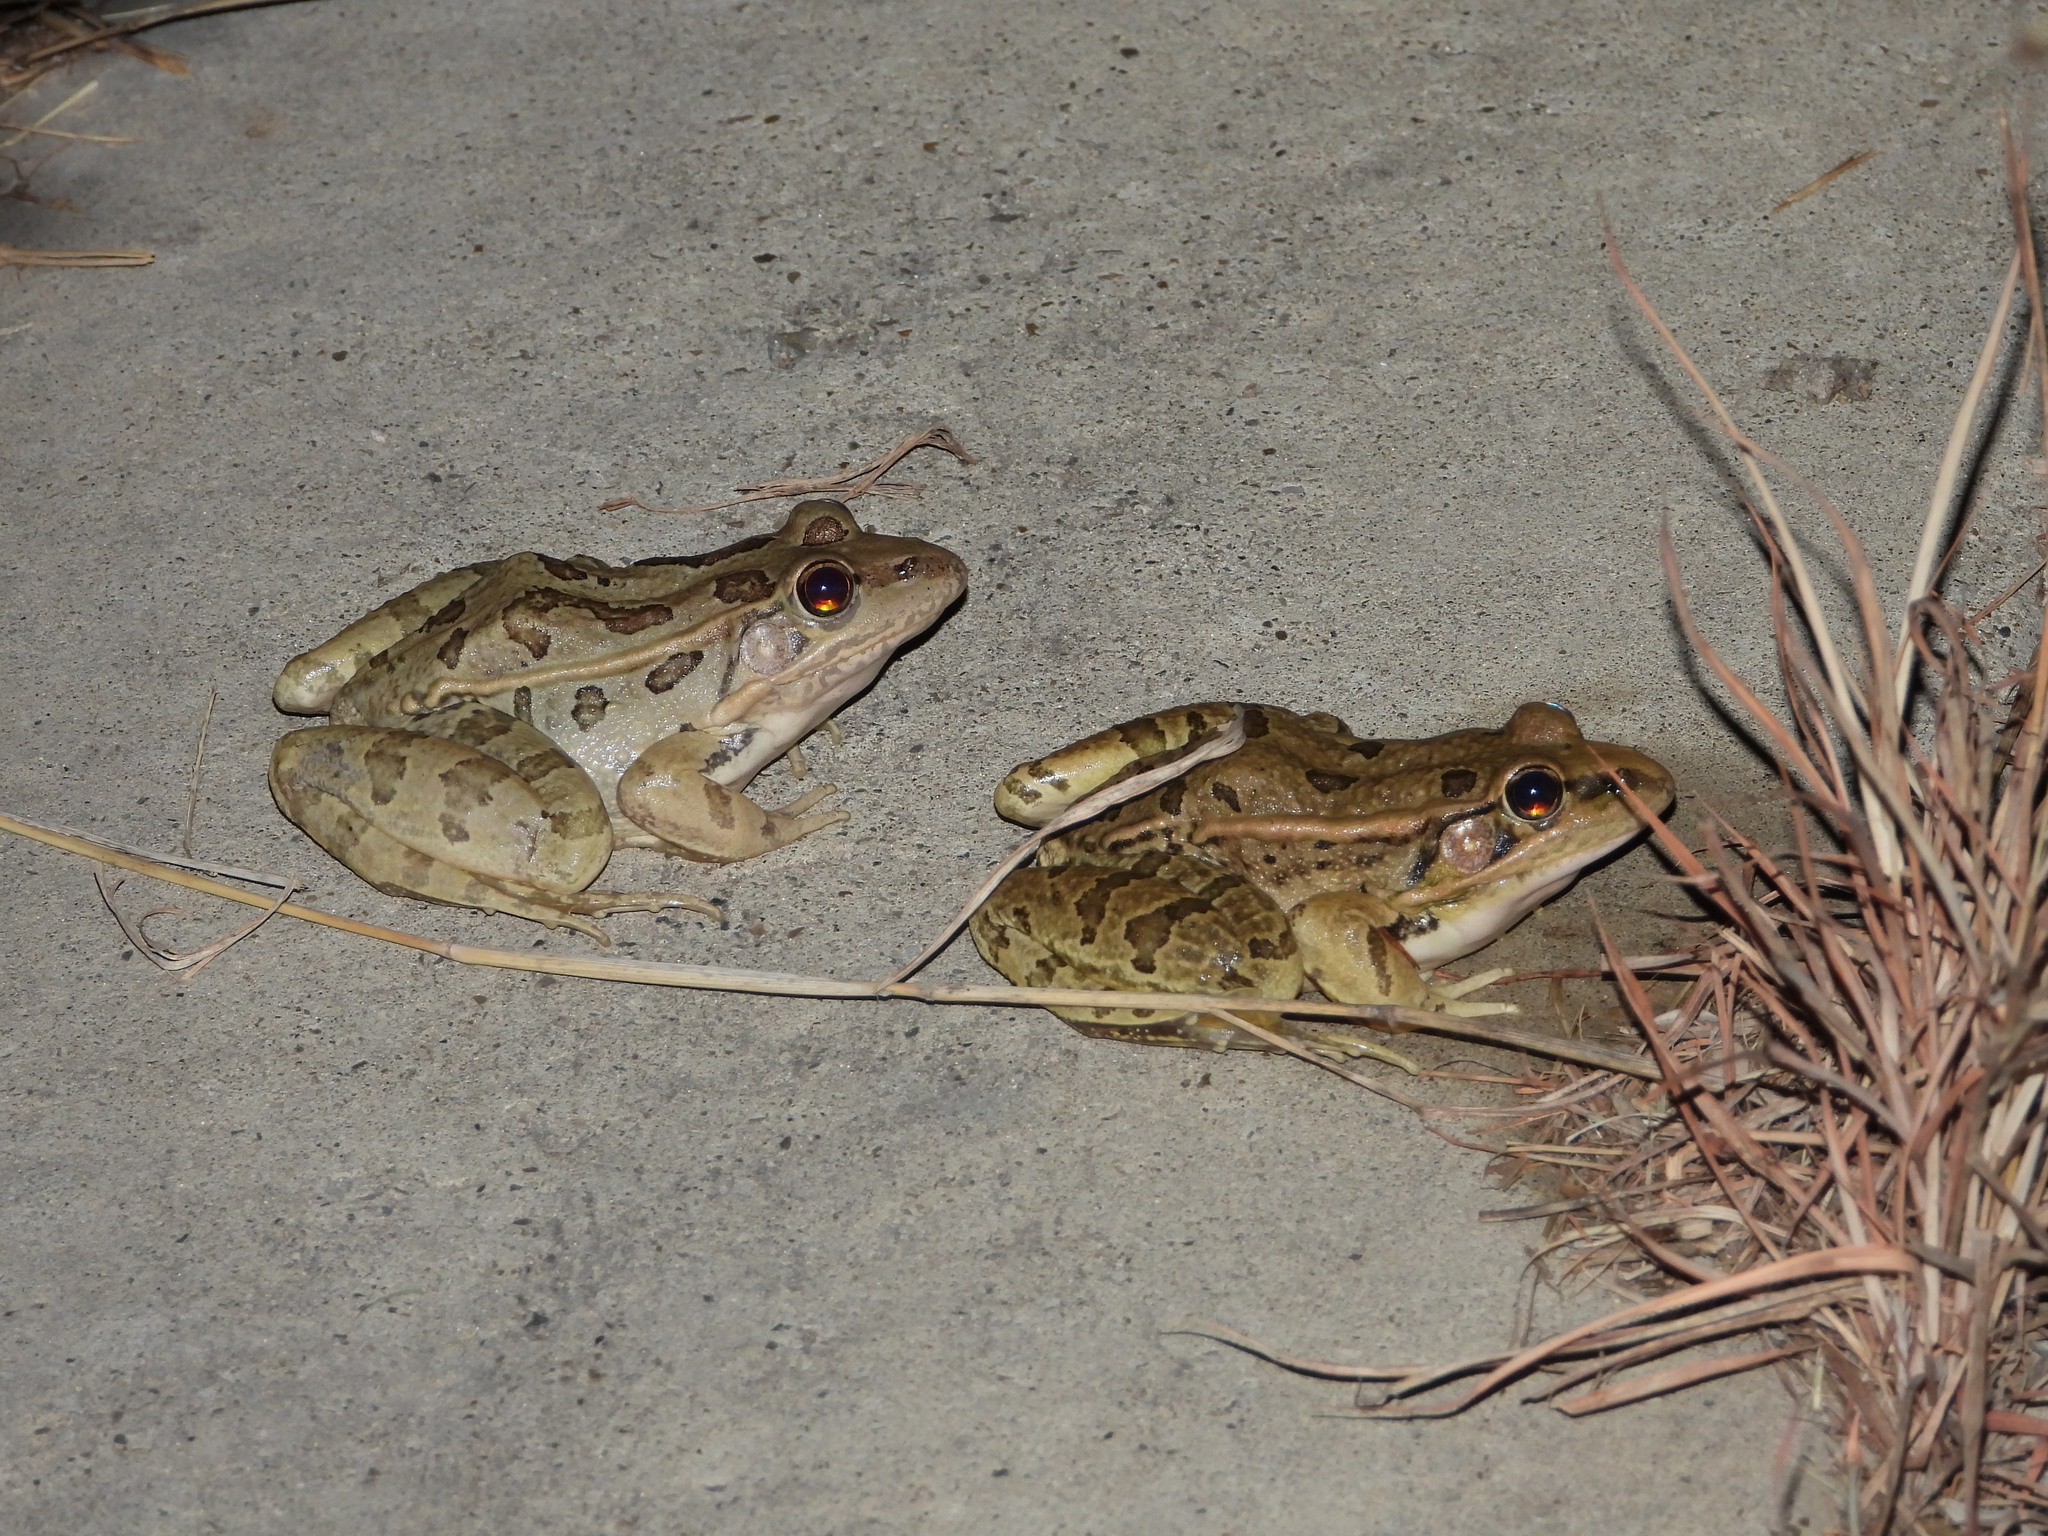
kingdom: Animalia
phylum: Chordata
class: Amphibia
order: Anura
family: Ranidae
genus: Lithobates
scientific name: Lithobates berlandieri
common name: Rio grande leopard frog
